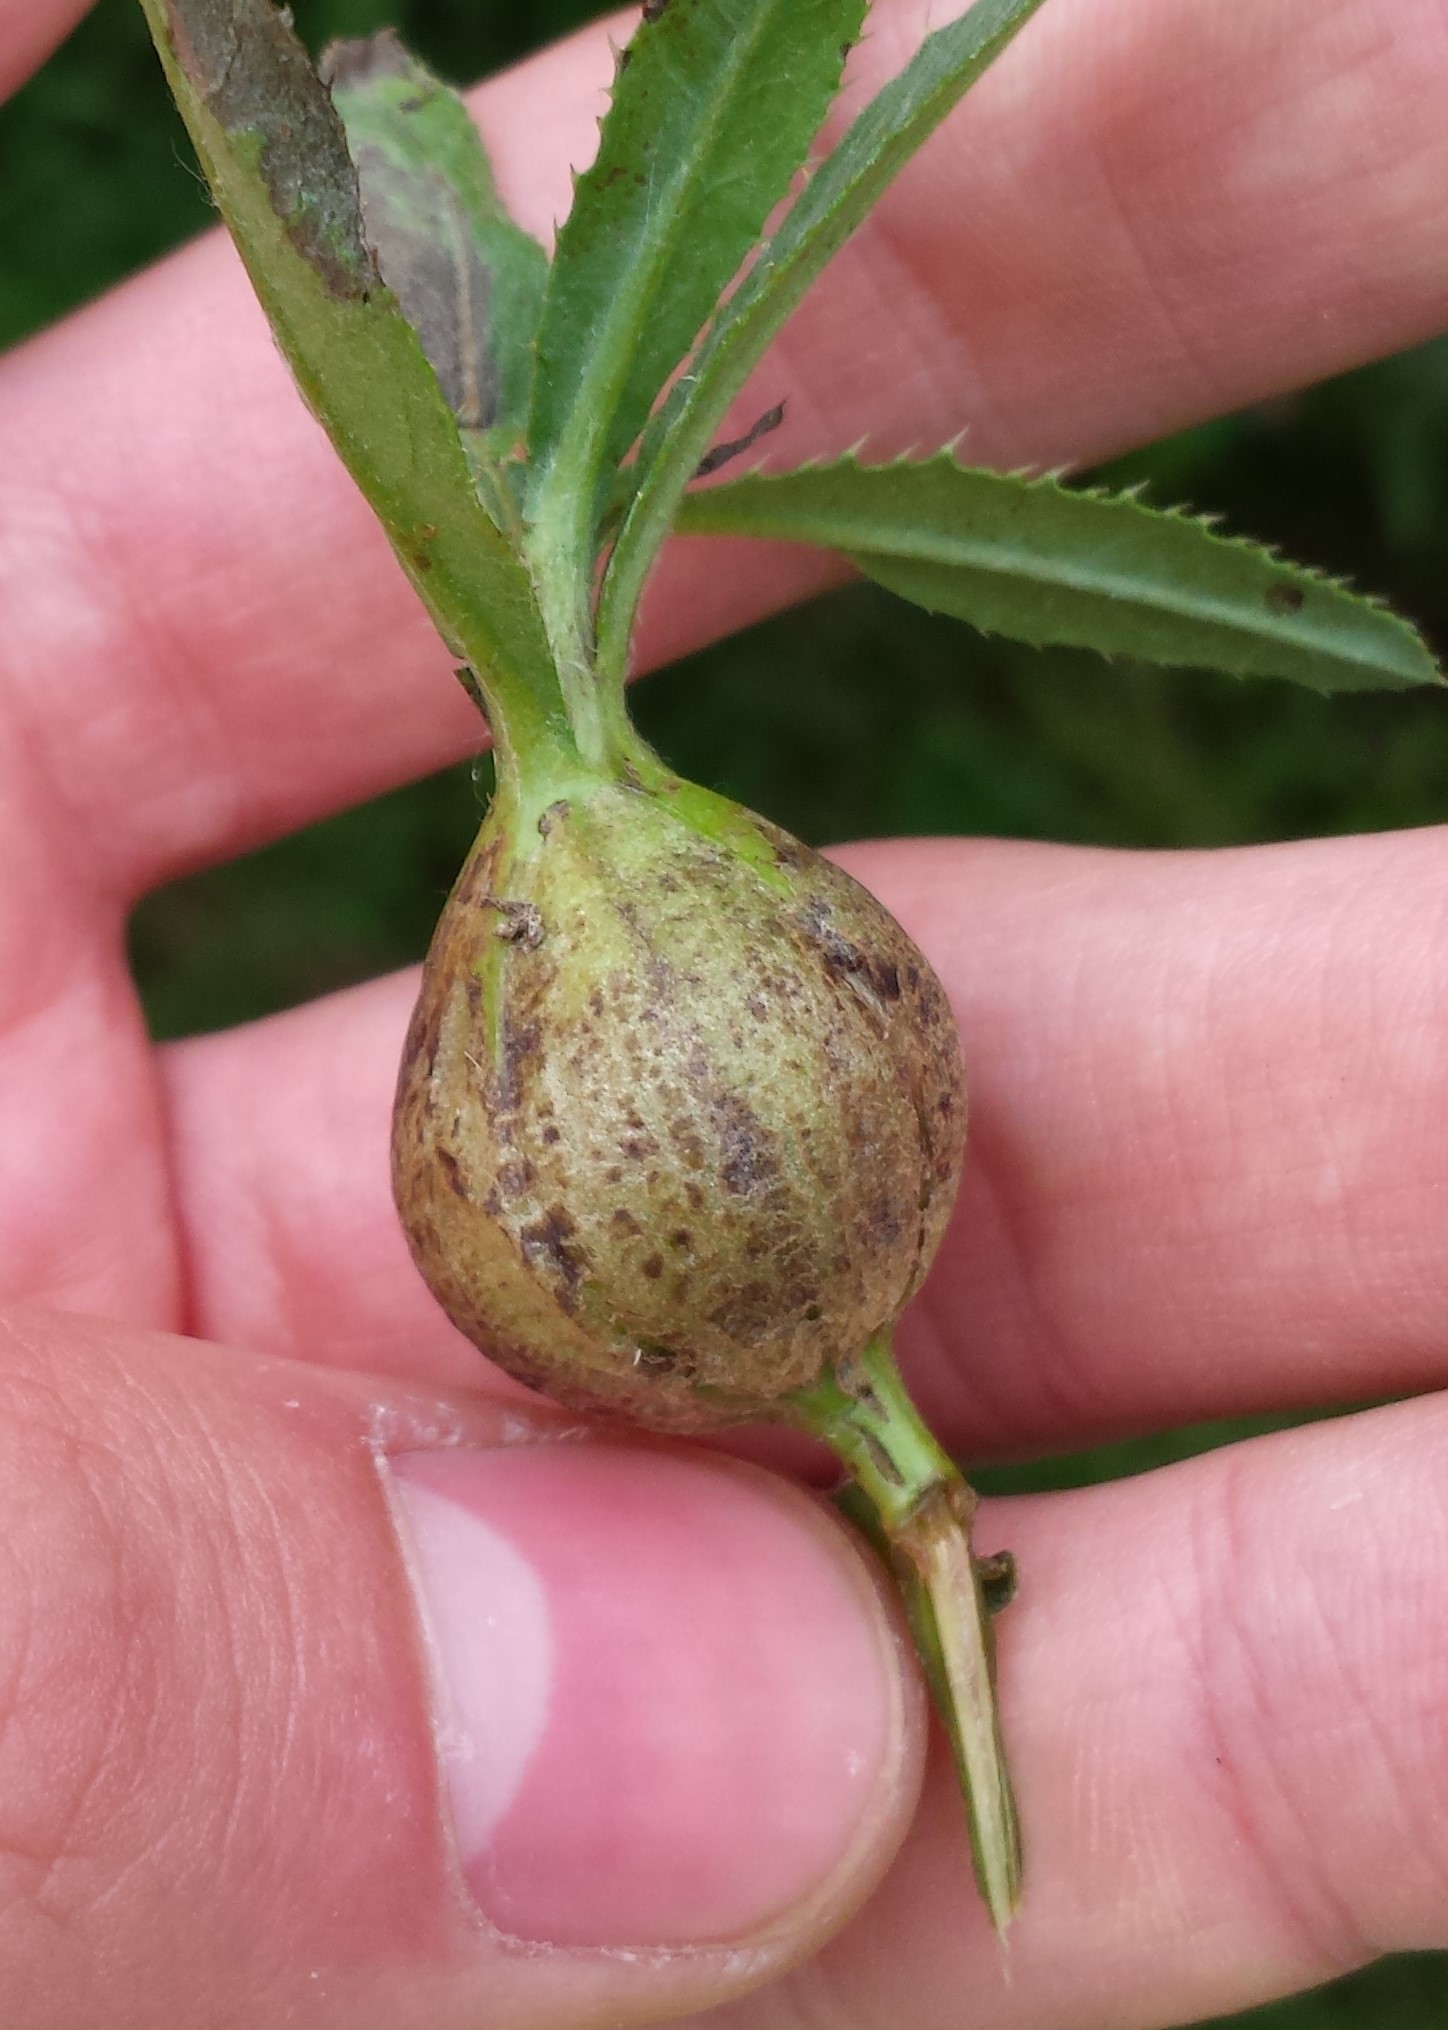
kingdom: Animalia
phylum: Arthropoda
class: Insecta
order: Diptera
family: Tephritidae
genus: Urophora
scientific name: Urophora cardui
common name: Fruit fly
